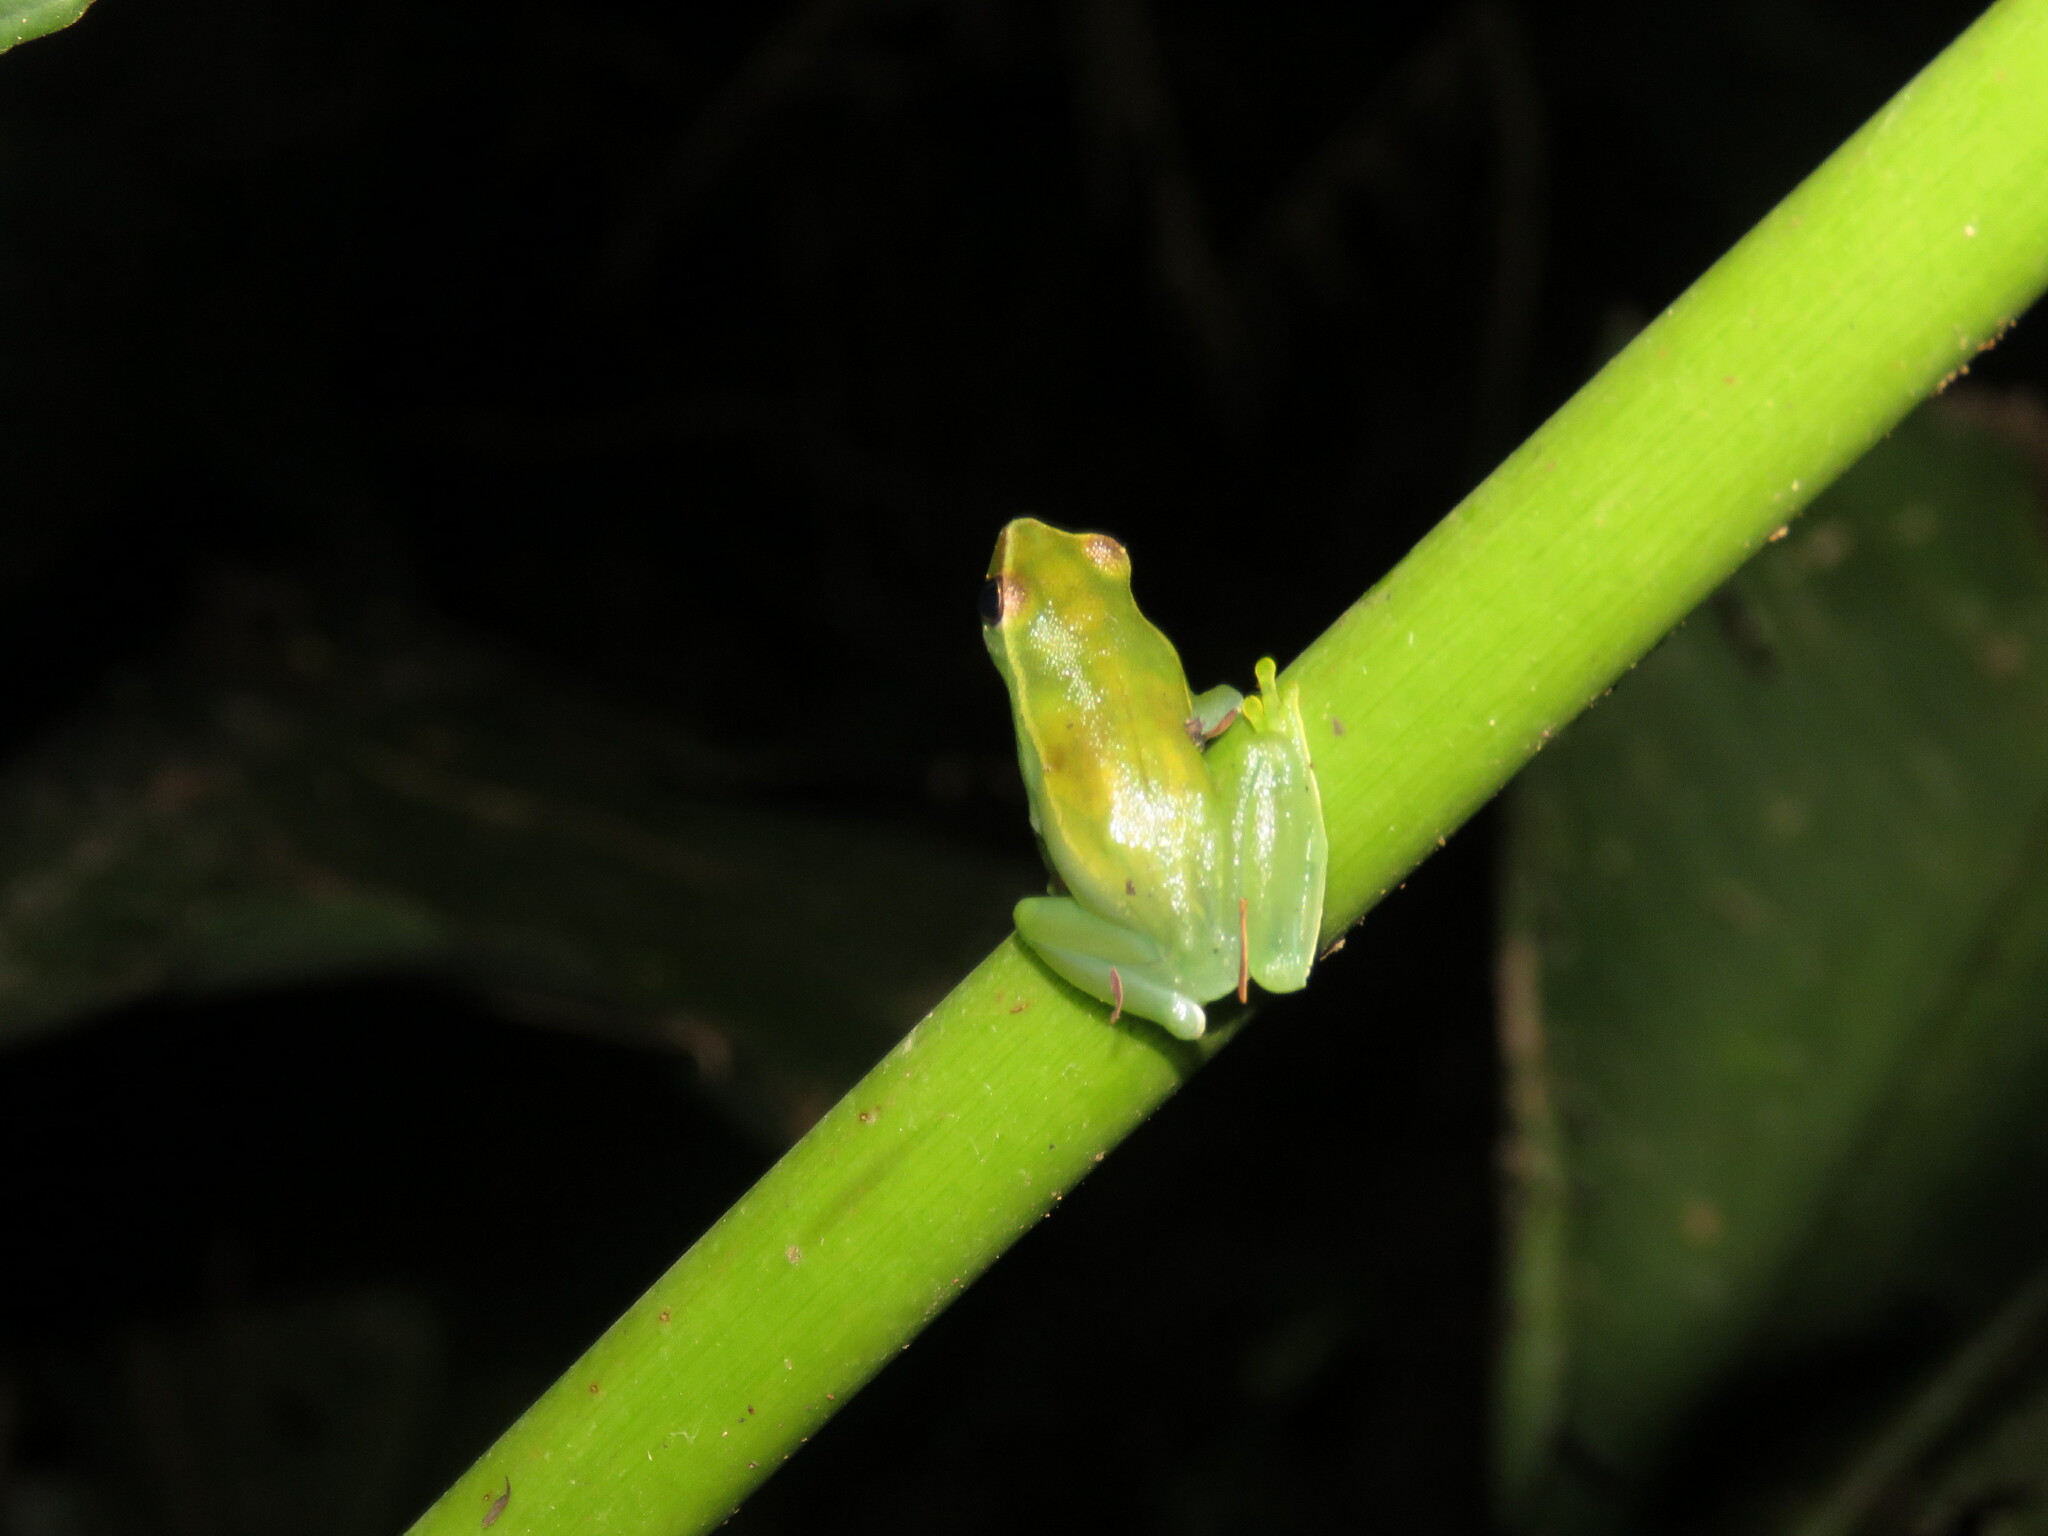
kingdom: Animalia
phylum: Chordata
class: Amphibia
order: Anura
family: Hylidae
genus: Sphaenorhynchus
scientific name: Sphaenorhynchus lacteus
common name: Orinoco lime treefrog
